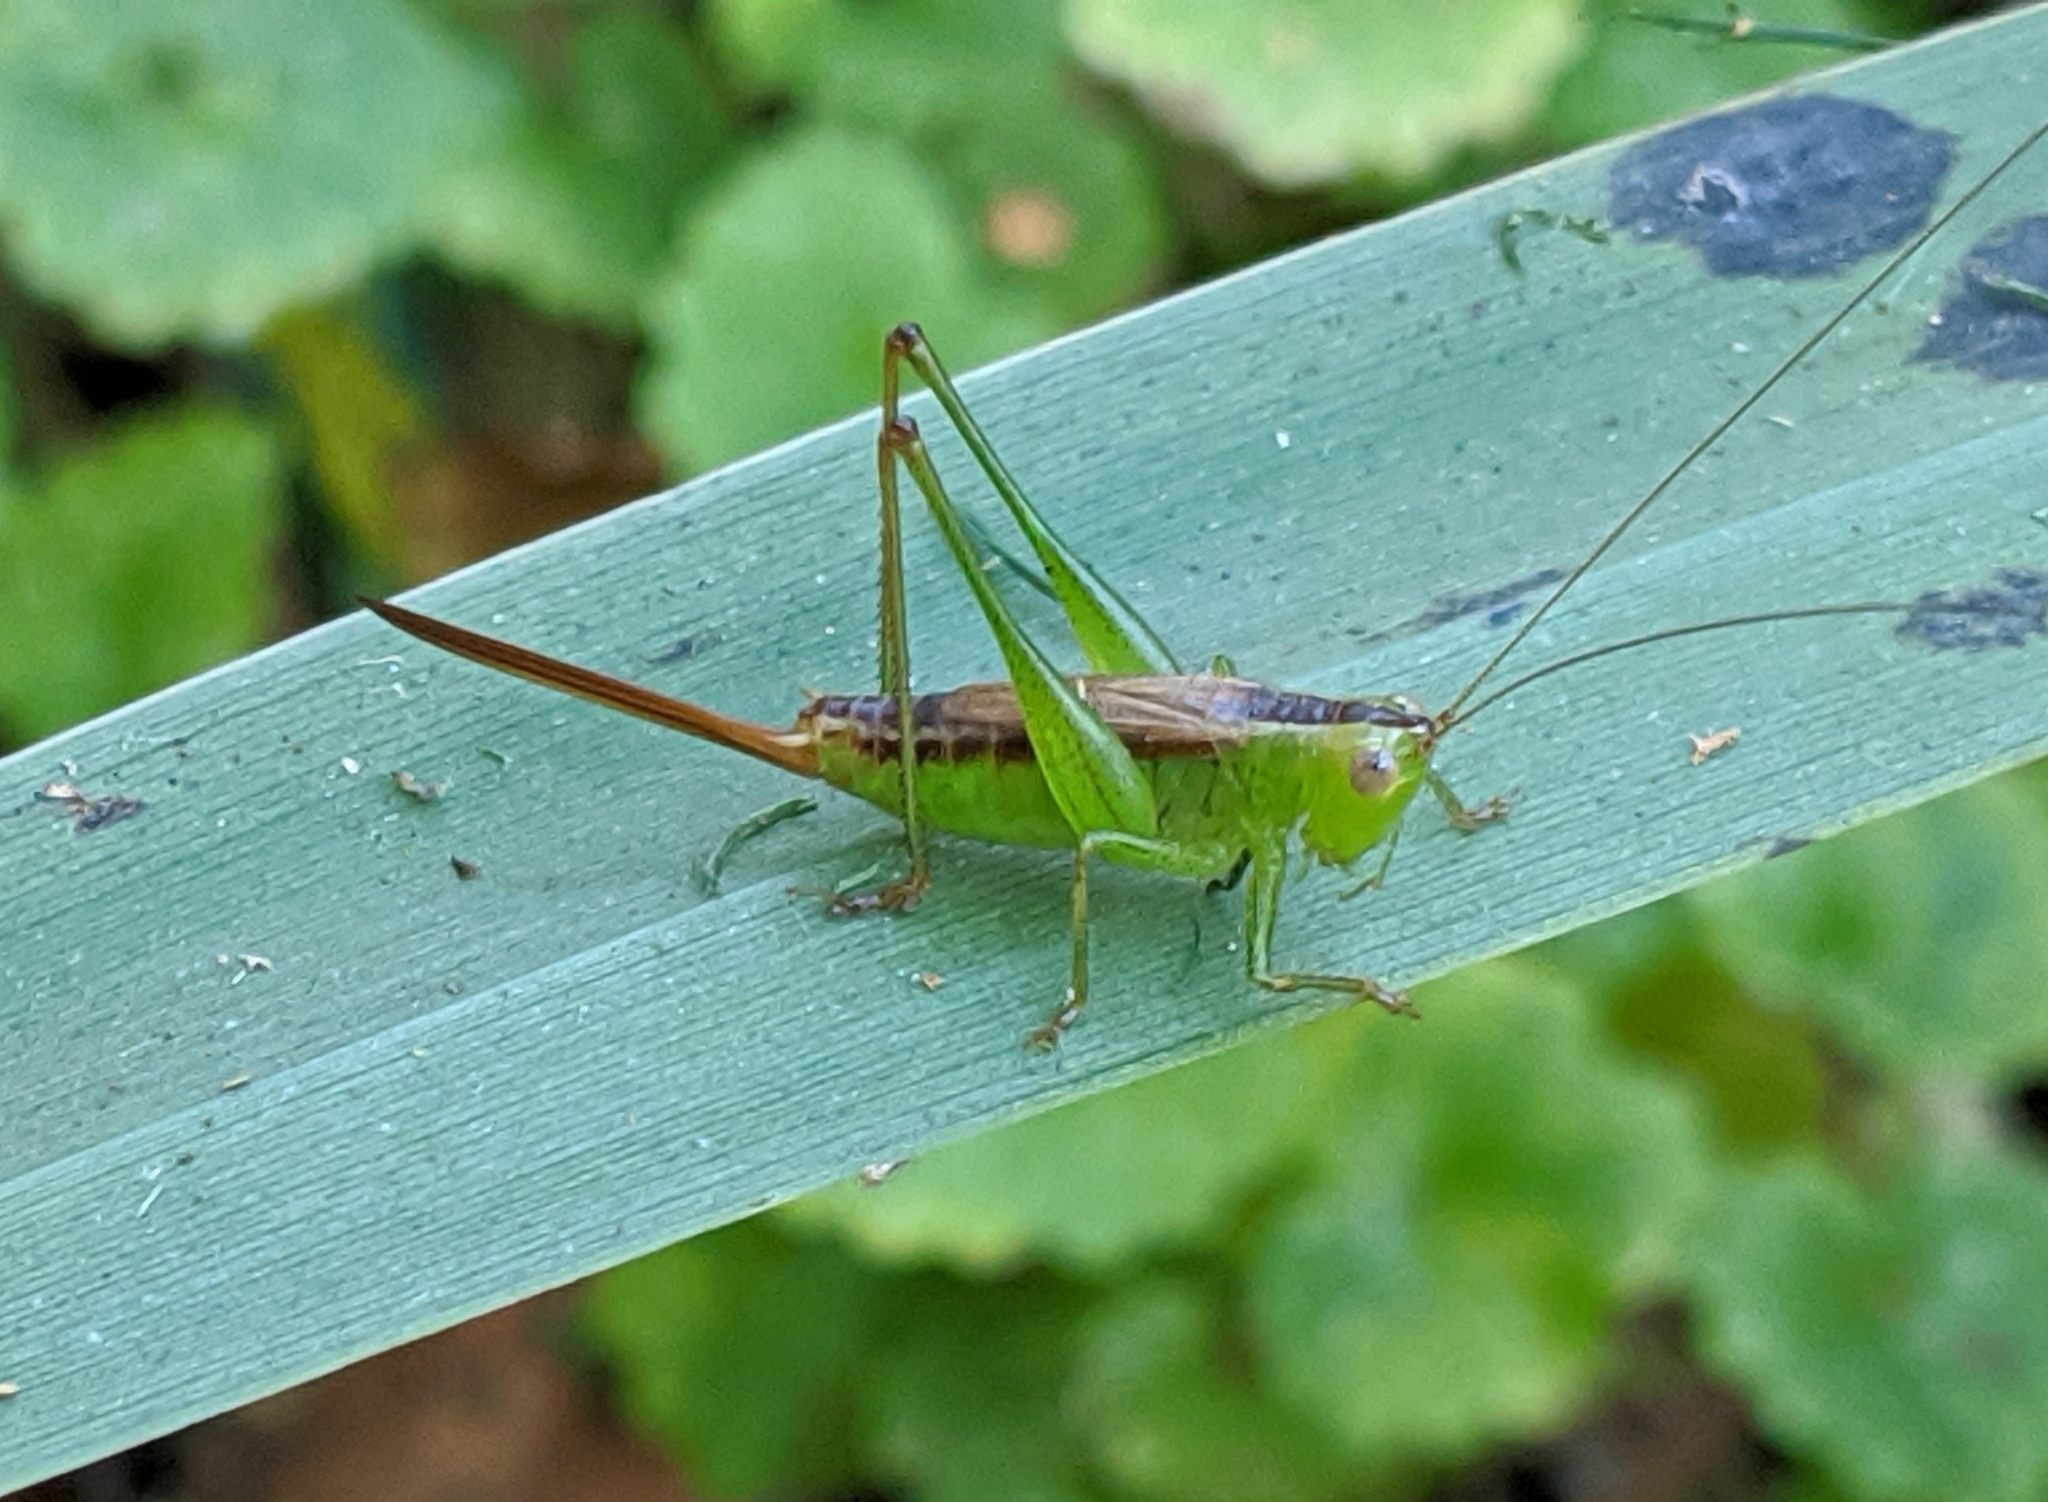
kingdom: Animalia
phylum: Arthropoda
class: Insecta
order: Orthoptera
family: Tettigoniidae
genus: Conocephalus
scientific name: Conocephalus brevipennis
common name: Short-winged meadow katydid
